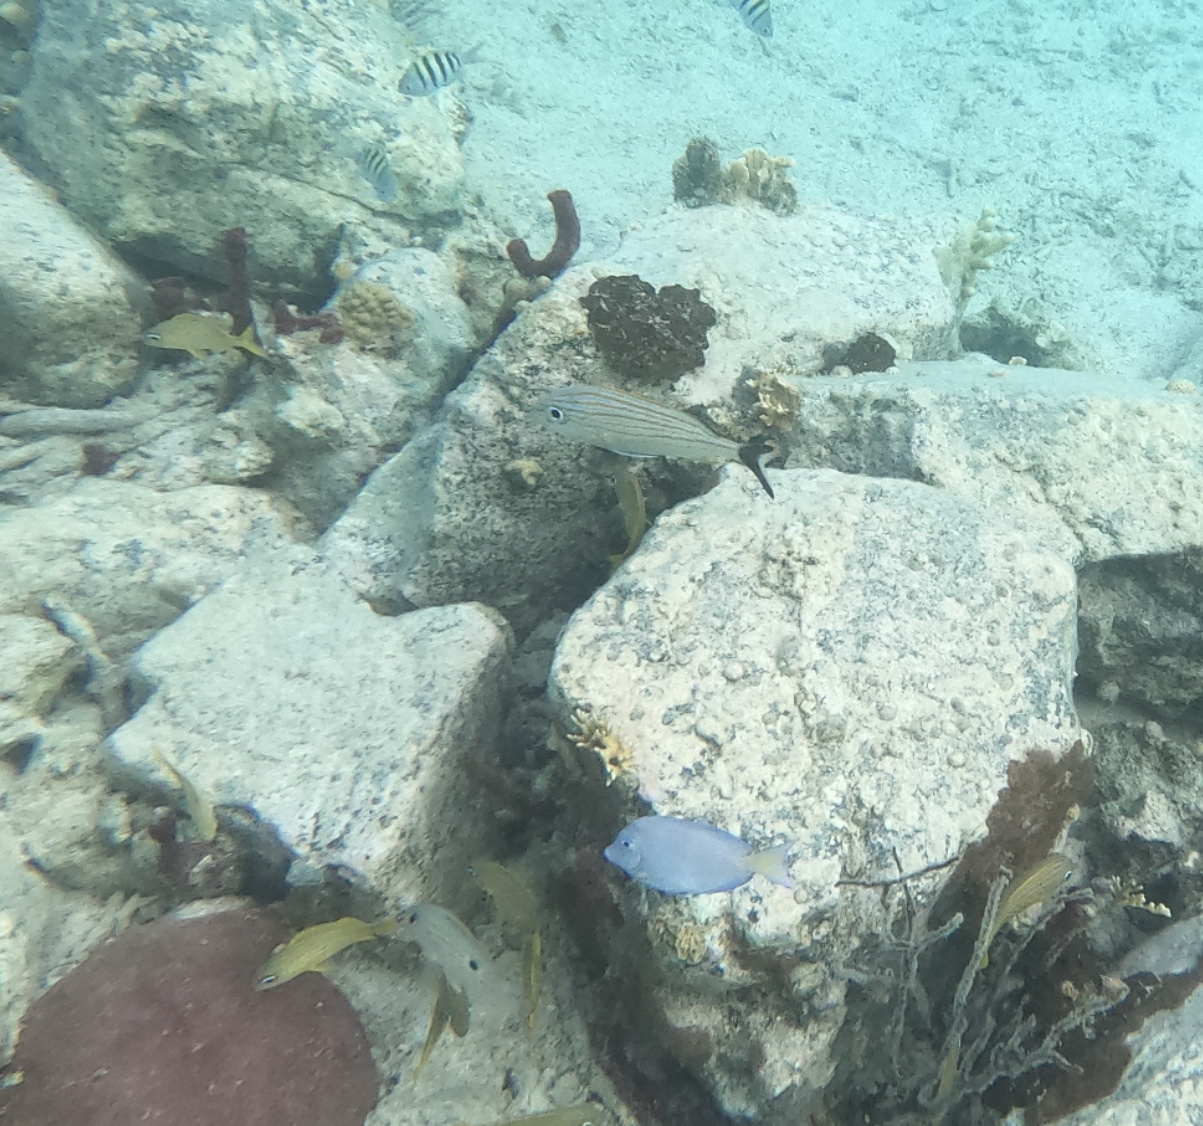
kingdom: Animalia
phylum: Chordata
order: Perciformes
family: Lutjanidae
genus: Lutjanus
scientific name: Lutjanus synagris
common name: Lane snapper
